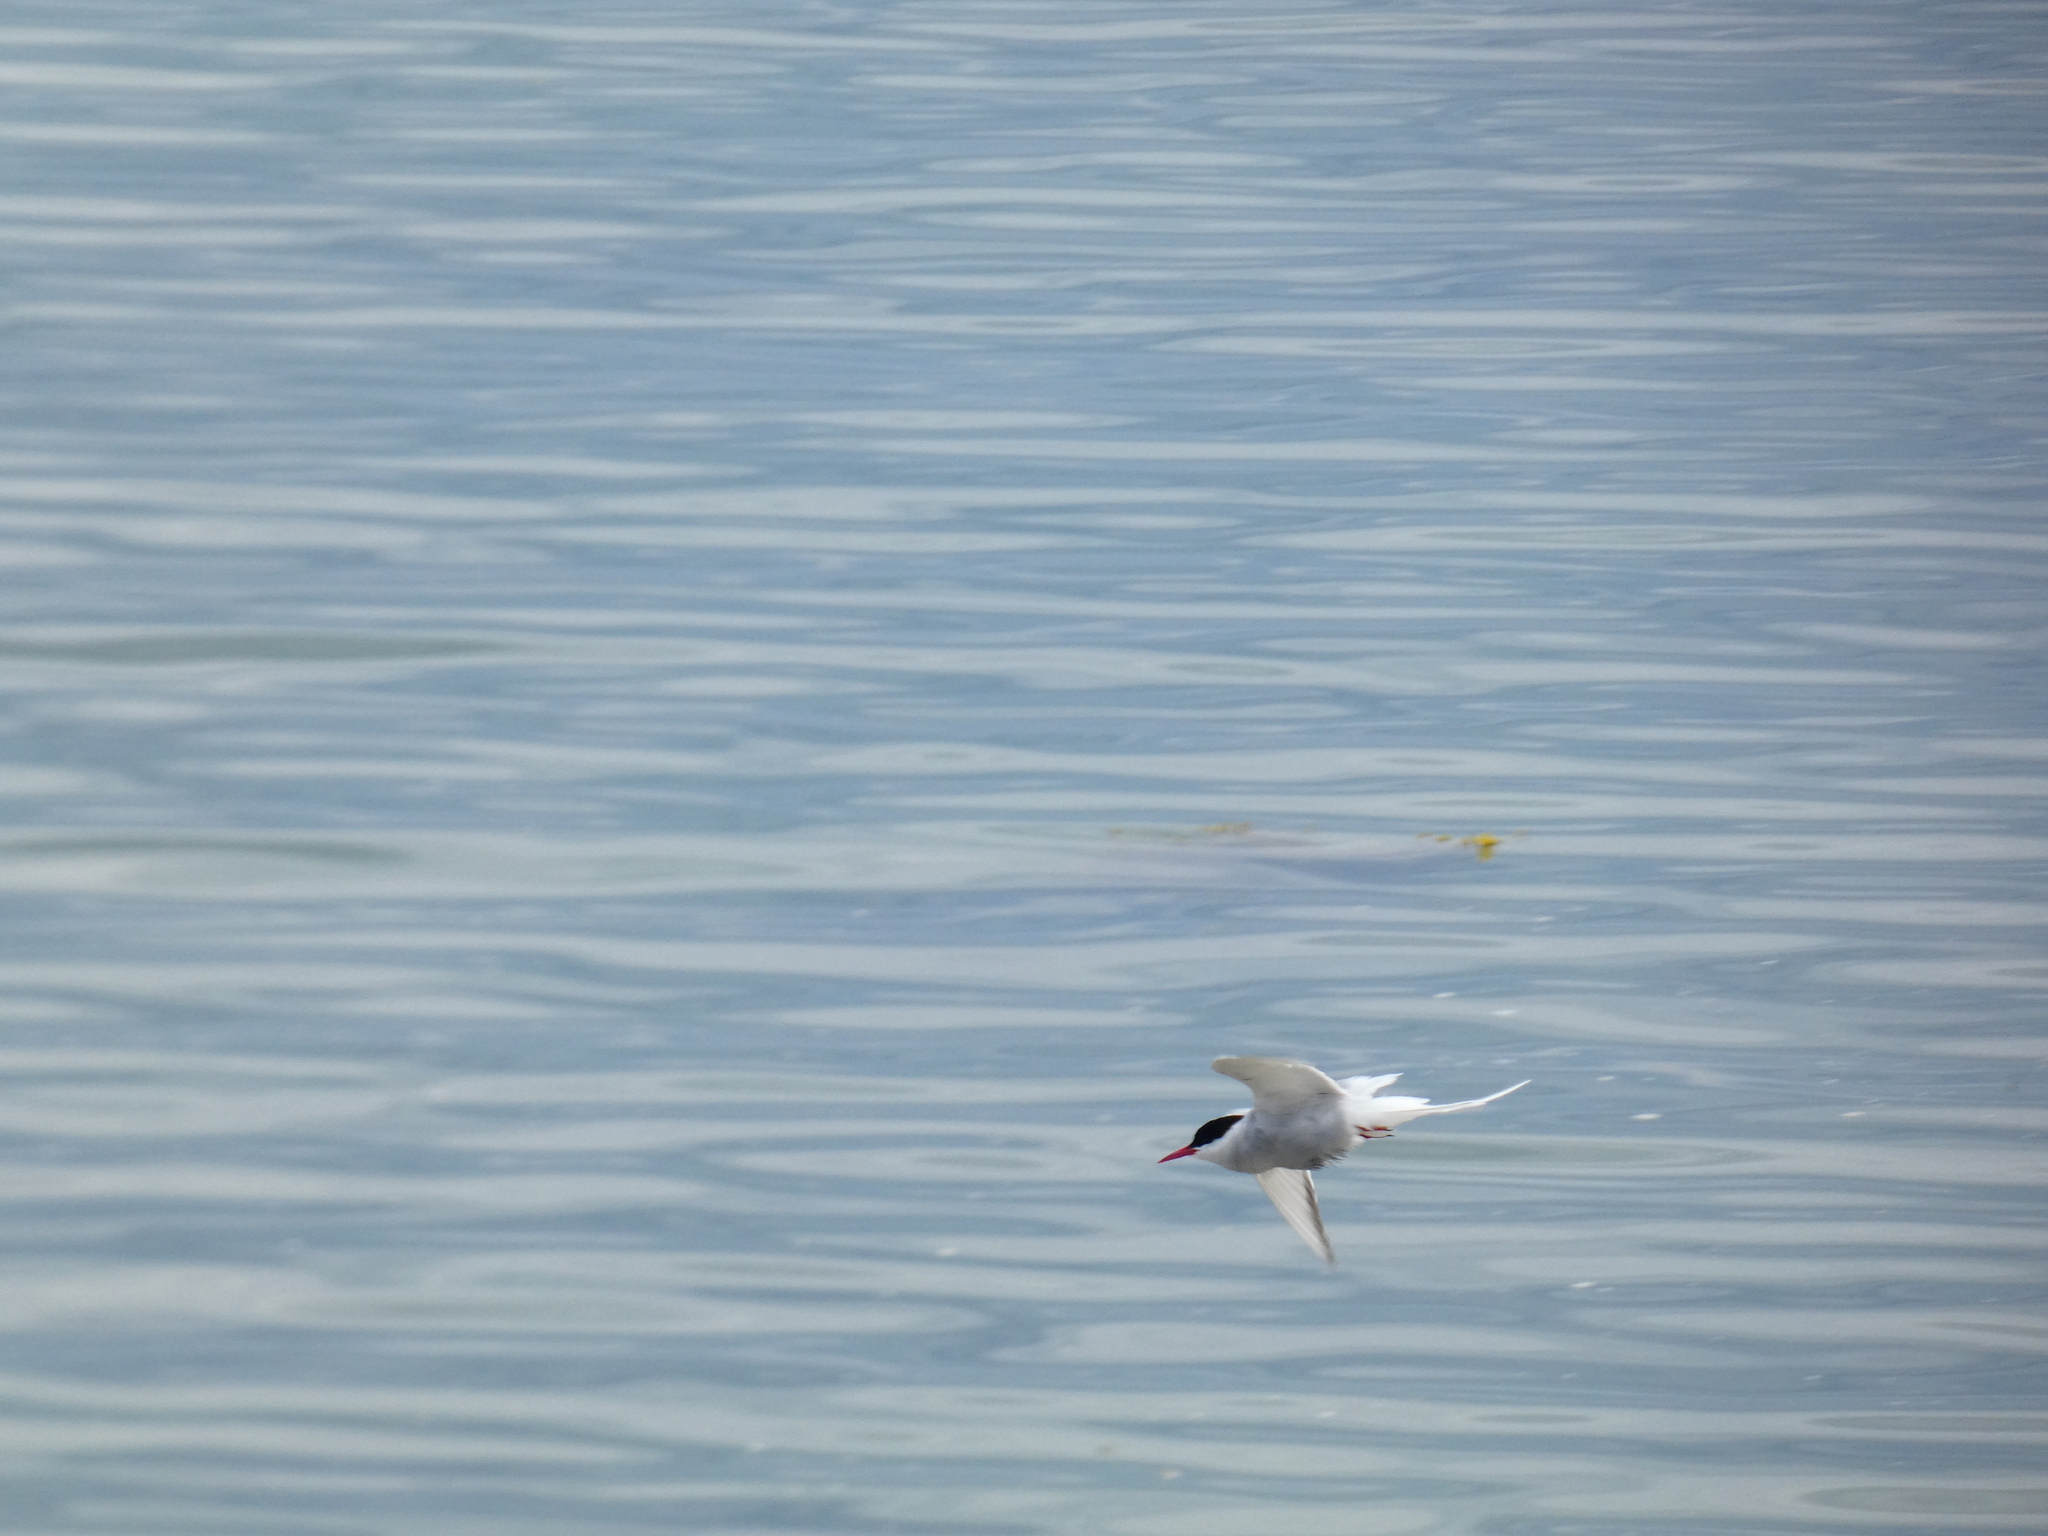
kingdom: Animalia
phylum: Chordata
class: Aves
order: Charadriiformes
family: Laridae
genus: Sterna
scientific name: Sterna paradisaea
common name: Arctic tern
